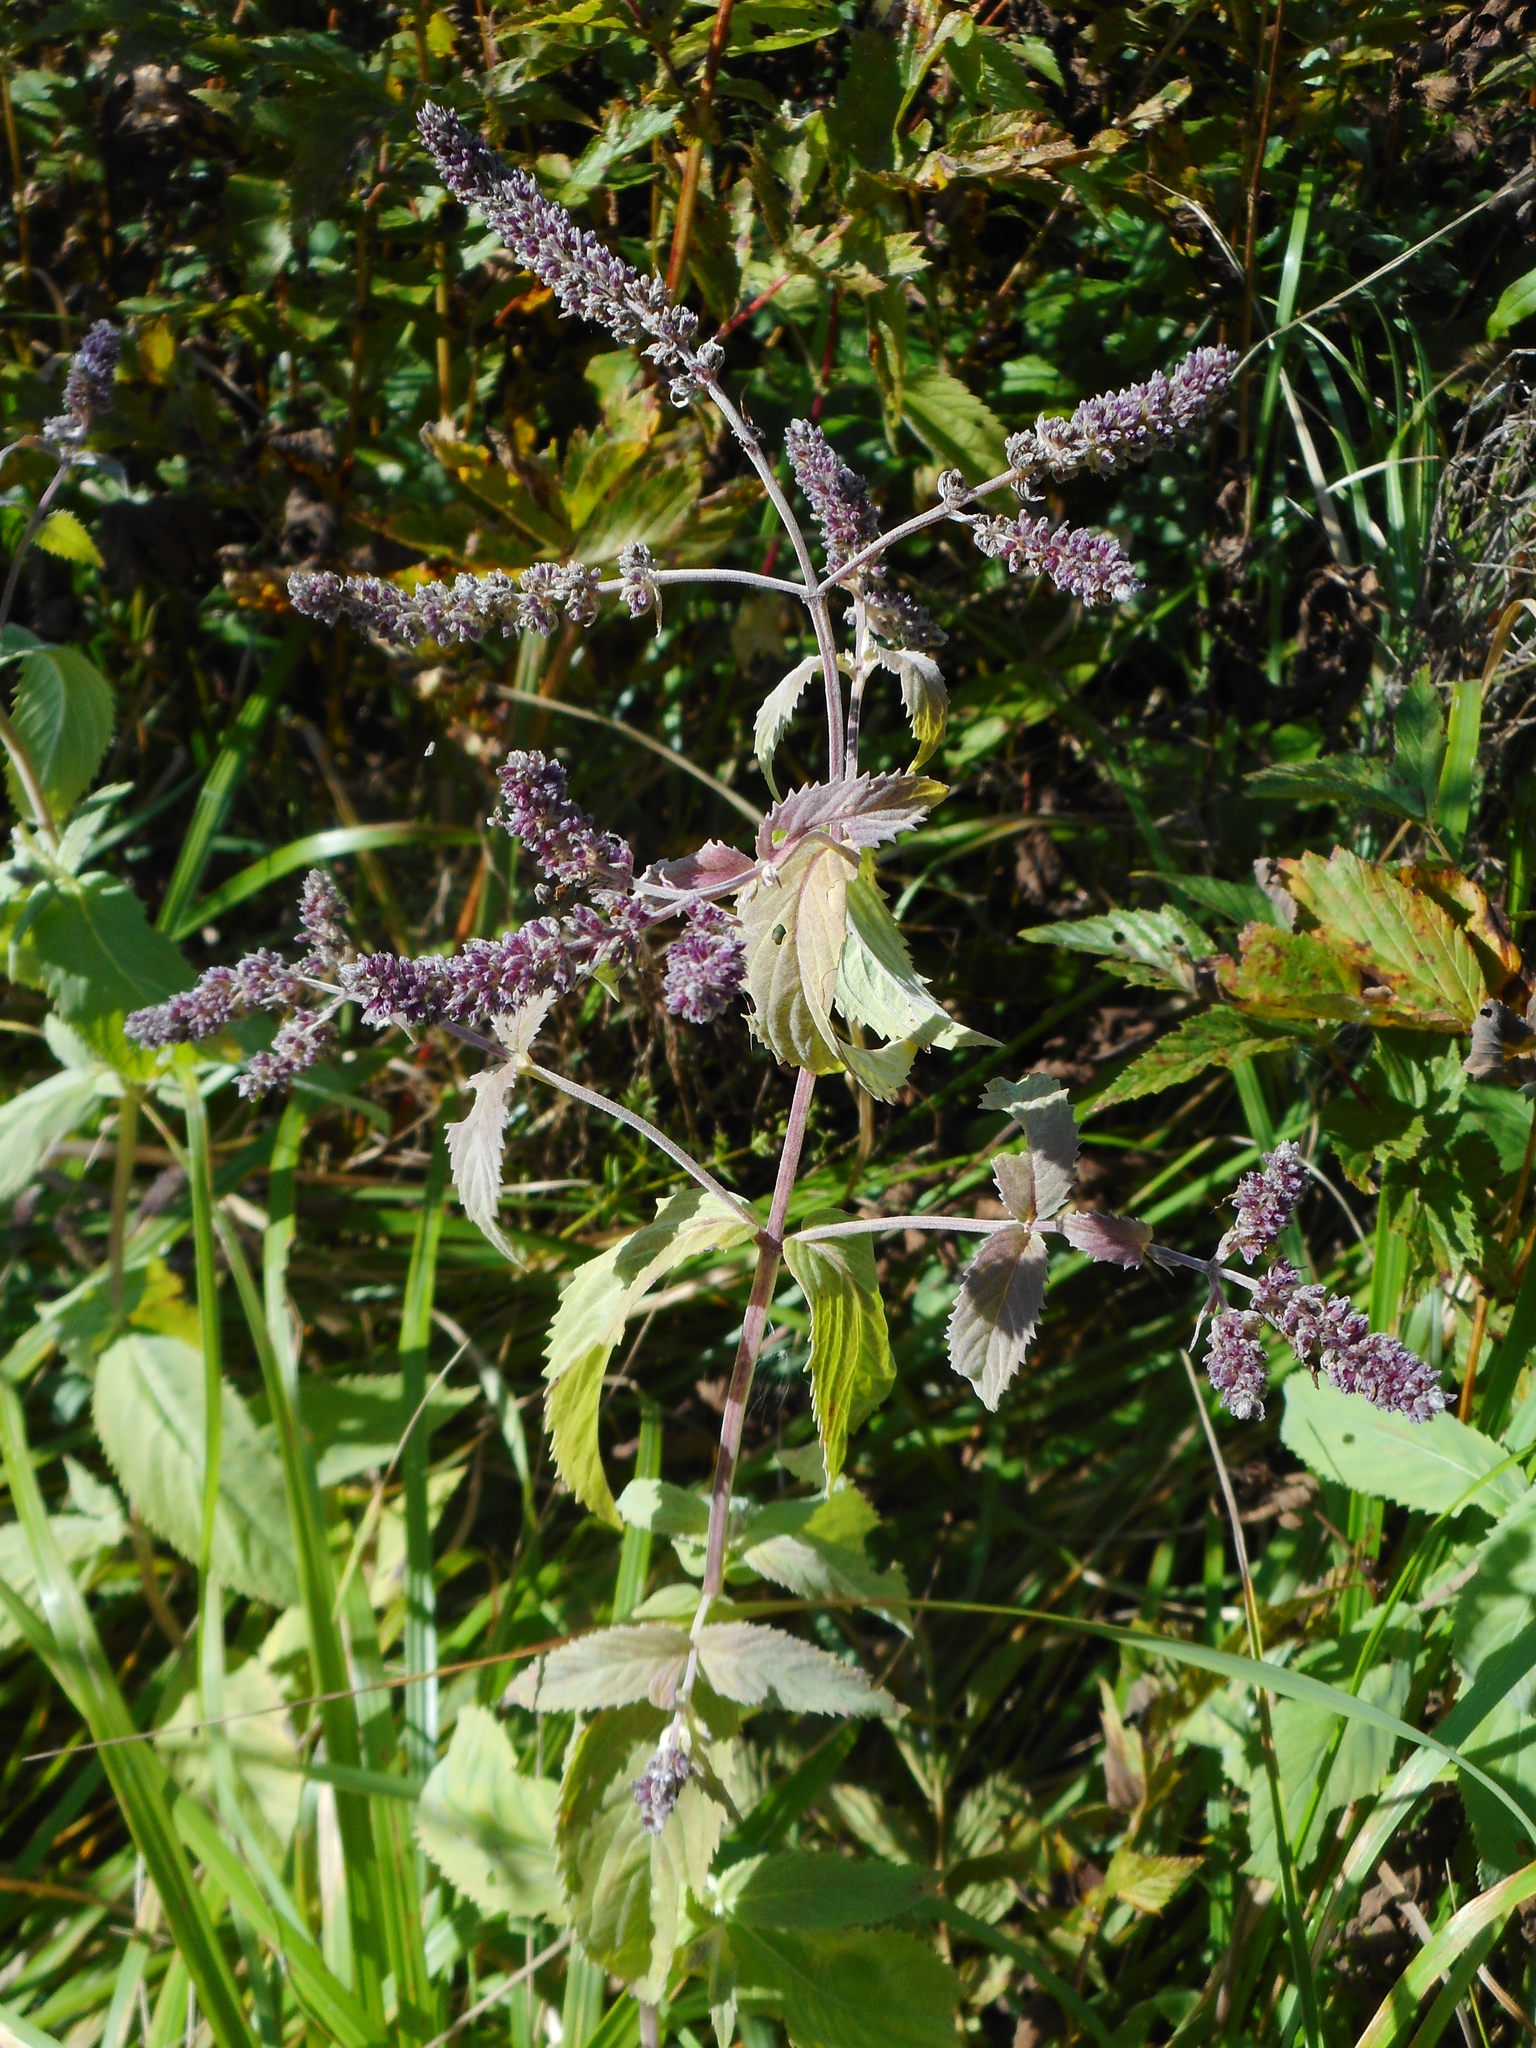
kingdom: Plantae
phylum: Tracheophyta
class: Magnoliopsida
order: Lamiales
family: Lamiaceae
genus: Mentha
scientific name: Mentha longifolia
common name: Horse mint
